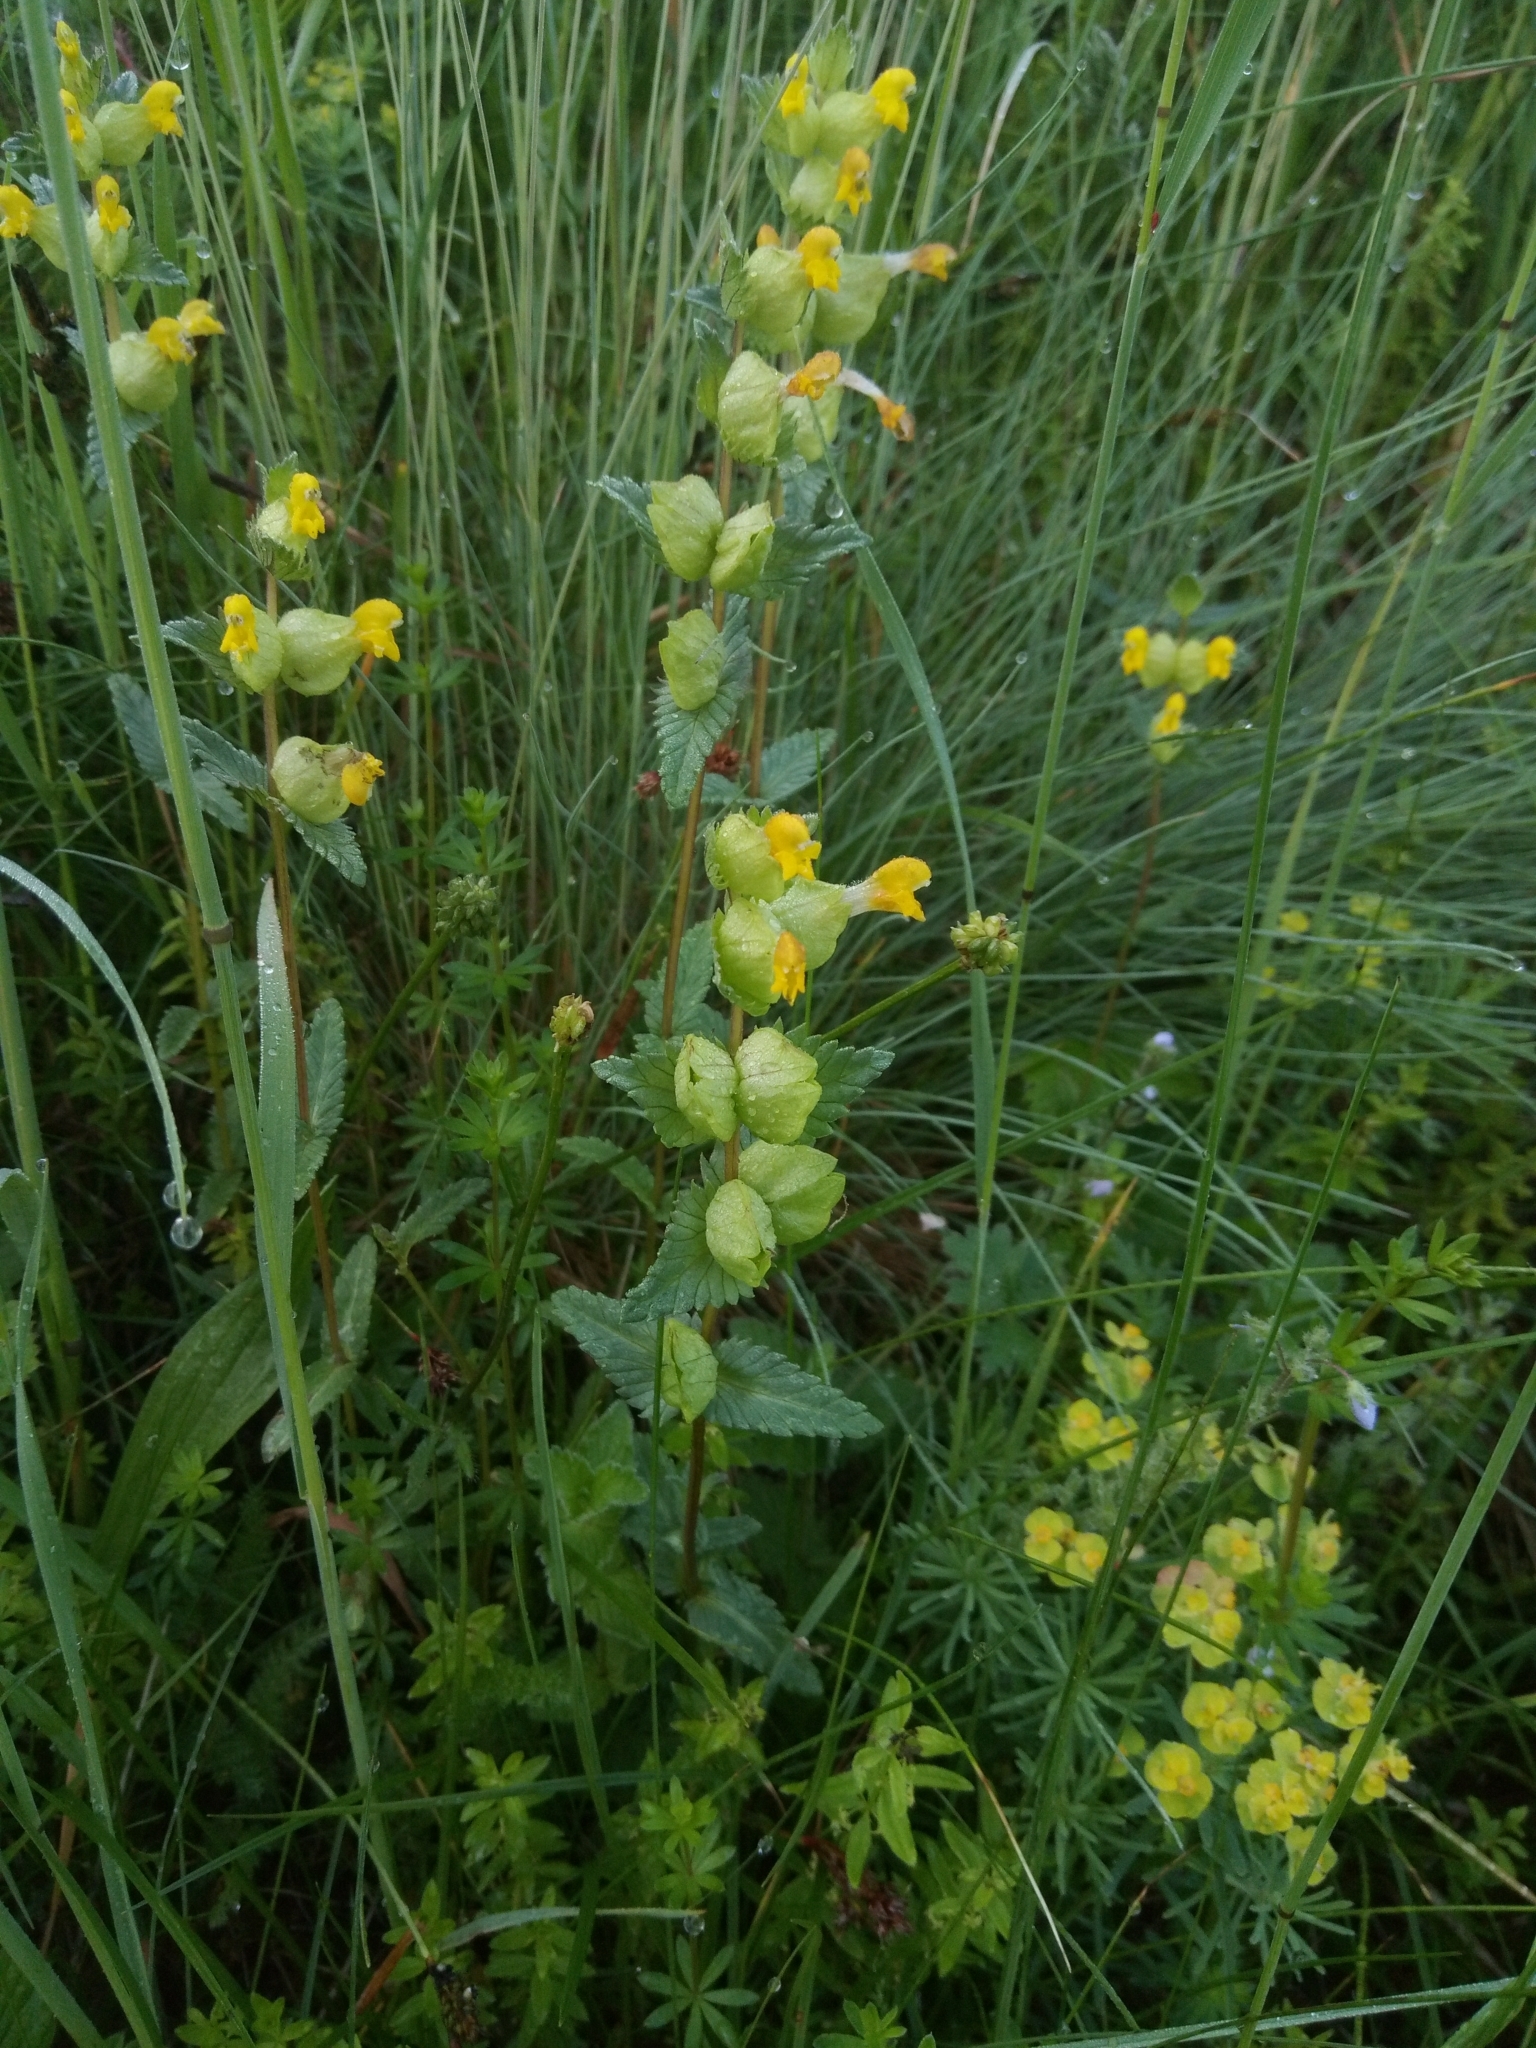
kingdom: Plantae
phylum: Tracheophyta
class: Magnoliopsida
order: Lamiales
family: Orobanchaceae
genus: Rhinanthus
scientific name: Rhinanthus minor
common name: Yellow-rattle
